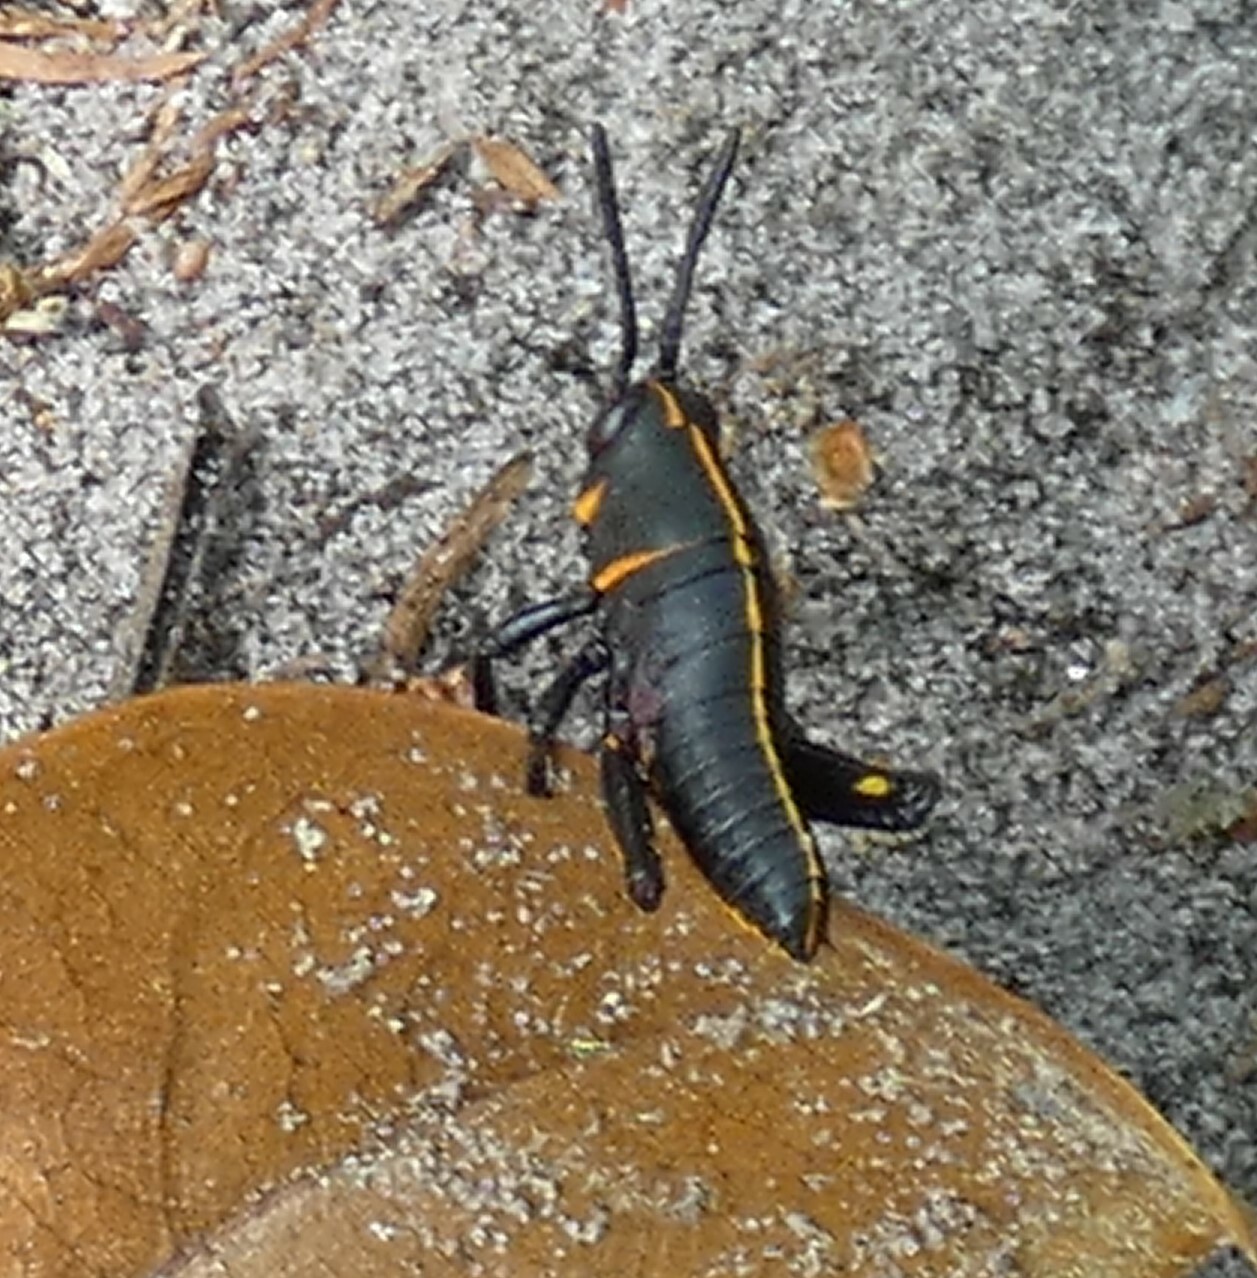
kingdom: Animalia
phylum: Arthropoda
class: Insecta
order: Orthoptera
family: Romaleidae
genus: Romalea
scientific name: Romalea microptera
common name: Eastern lubber grasshopper
